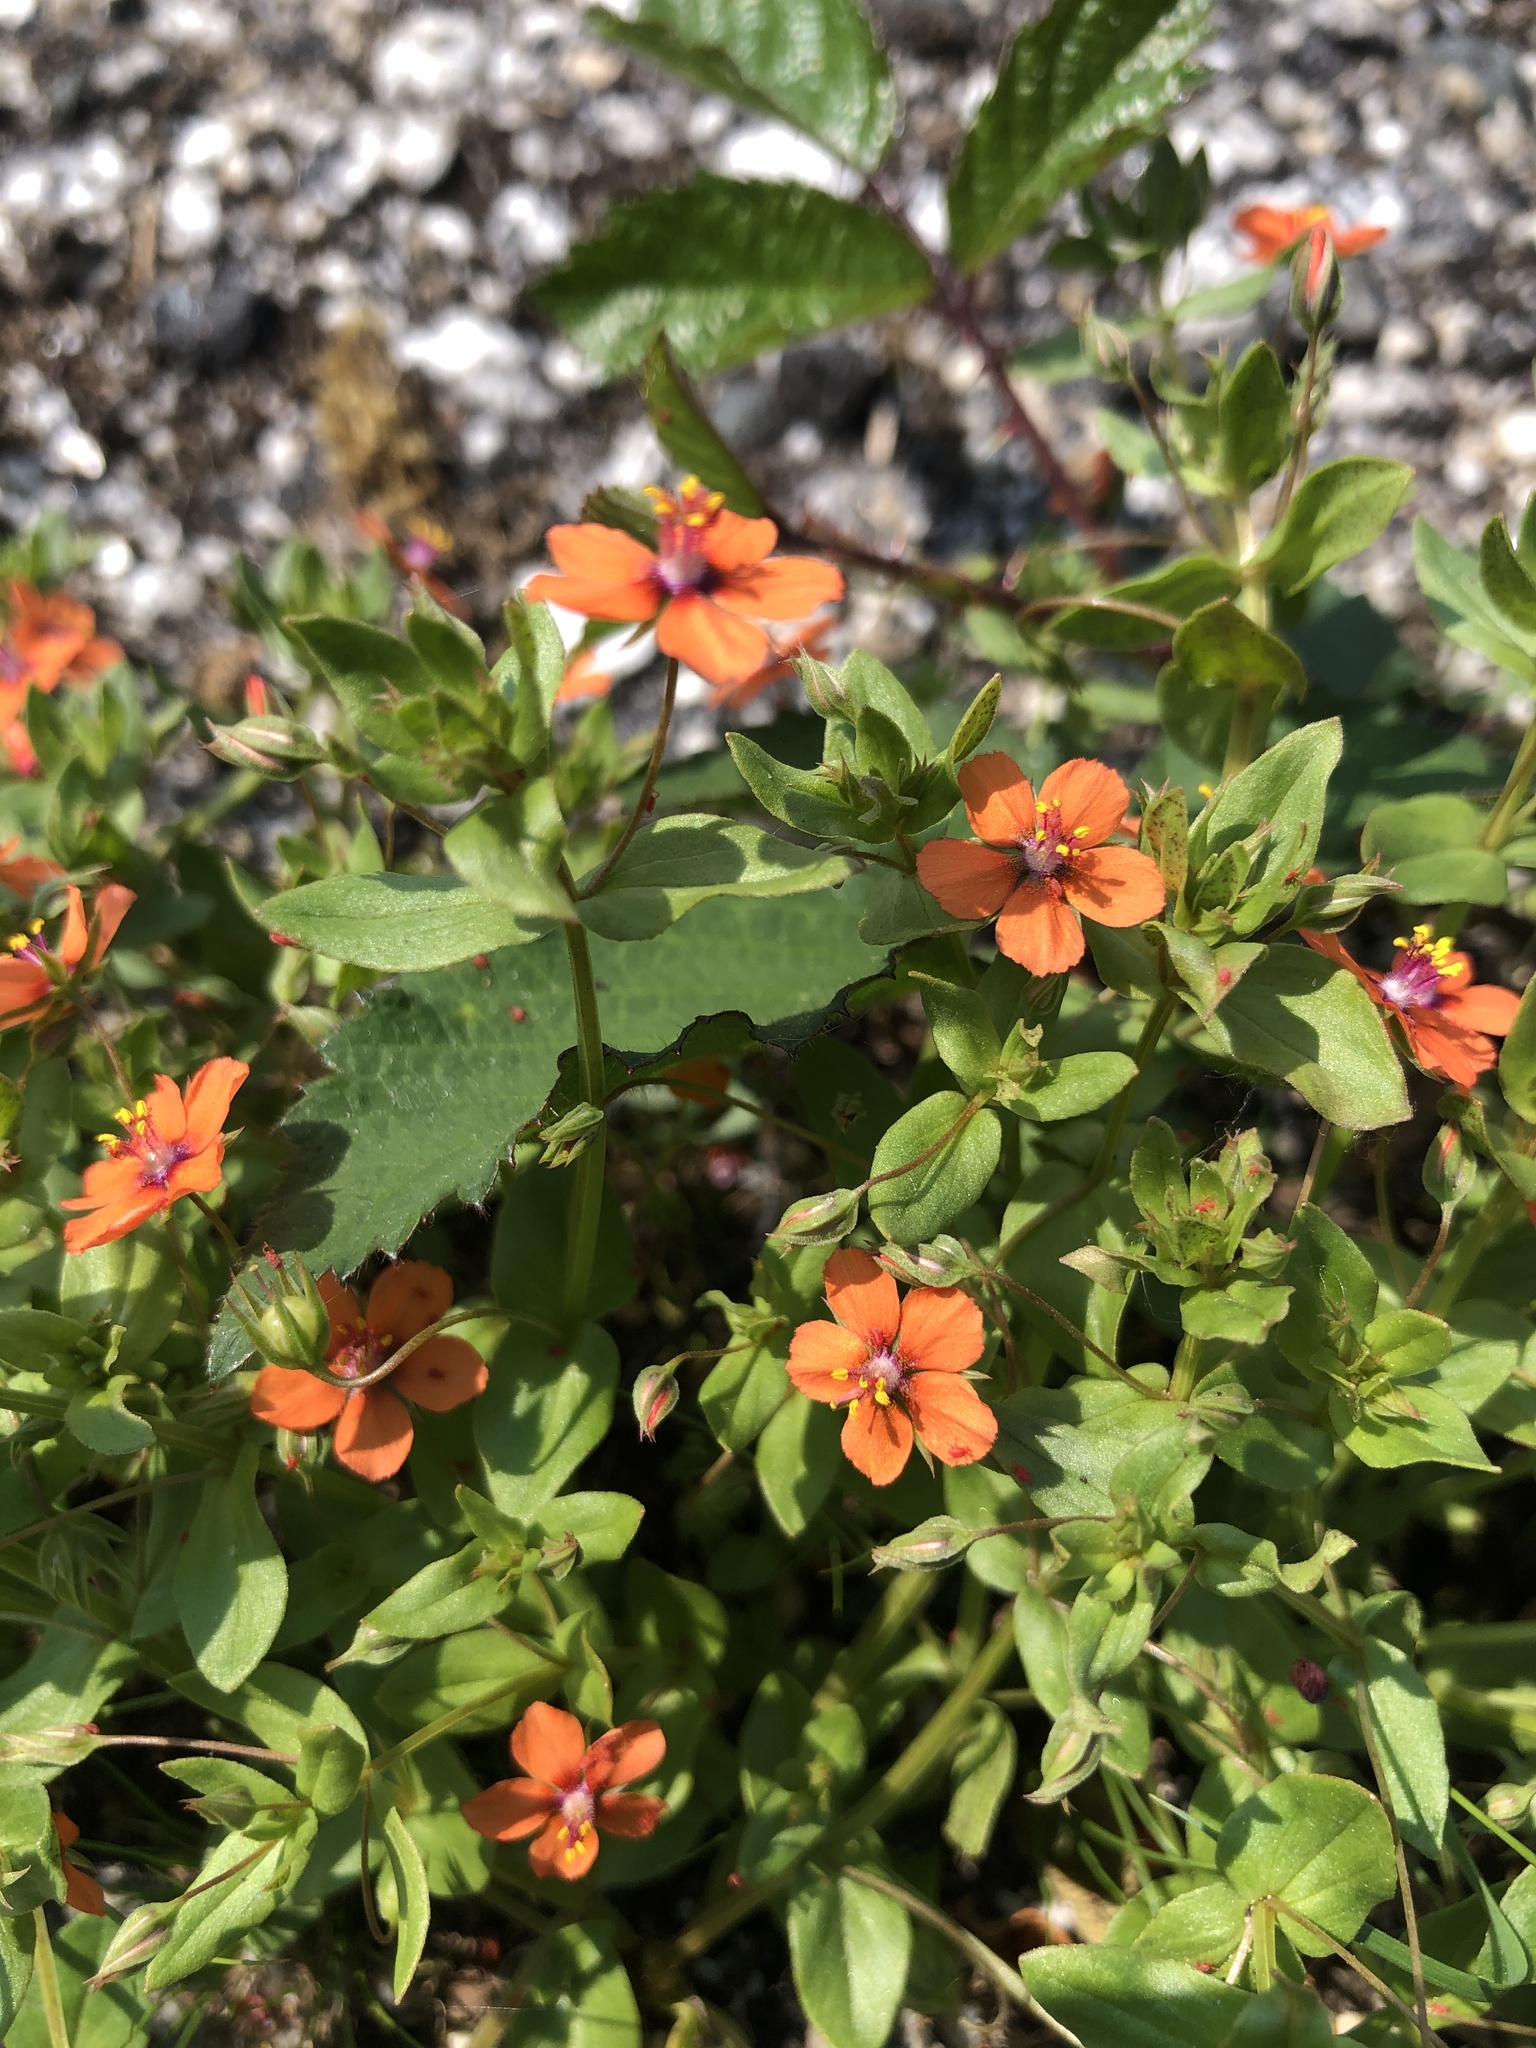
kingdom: Plantae
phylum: Tracheophyta
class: Magnoliopsida
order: Ericales
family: Primulaceae
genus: Lysimachia
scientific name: Lysimachia arvensis
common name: Scarlet pimpernel
